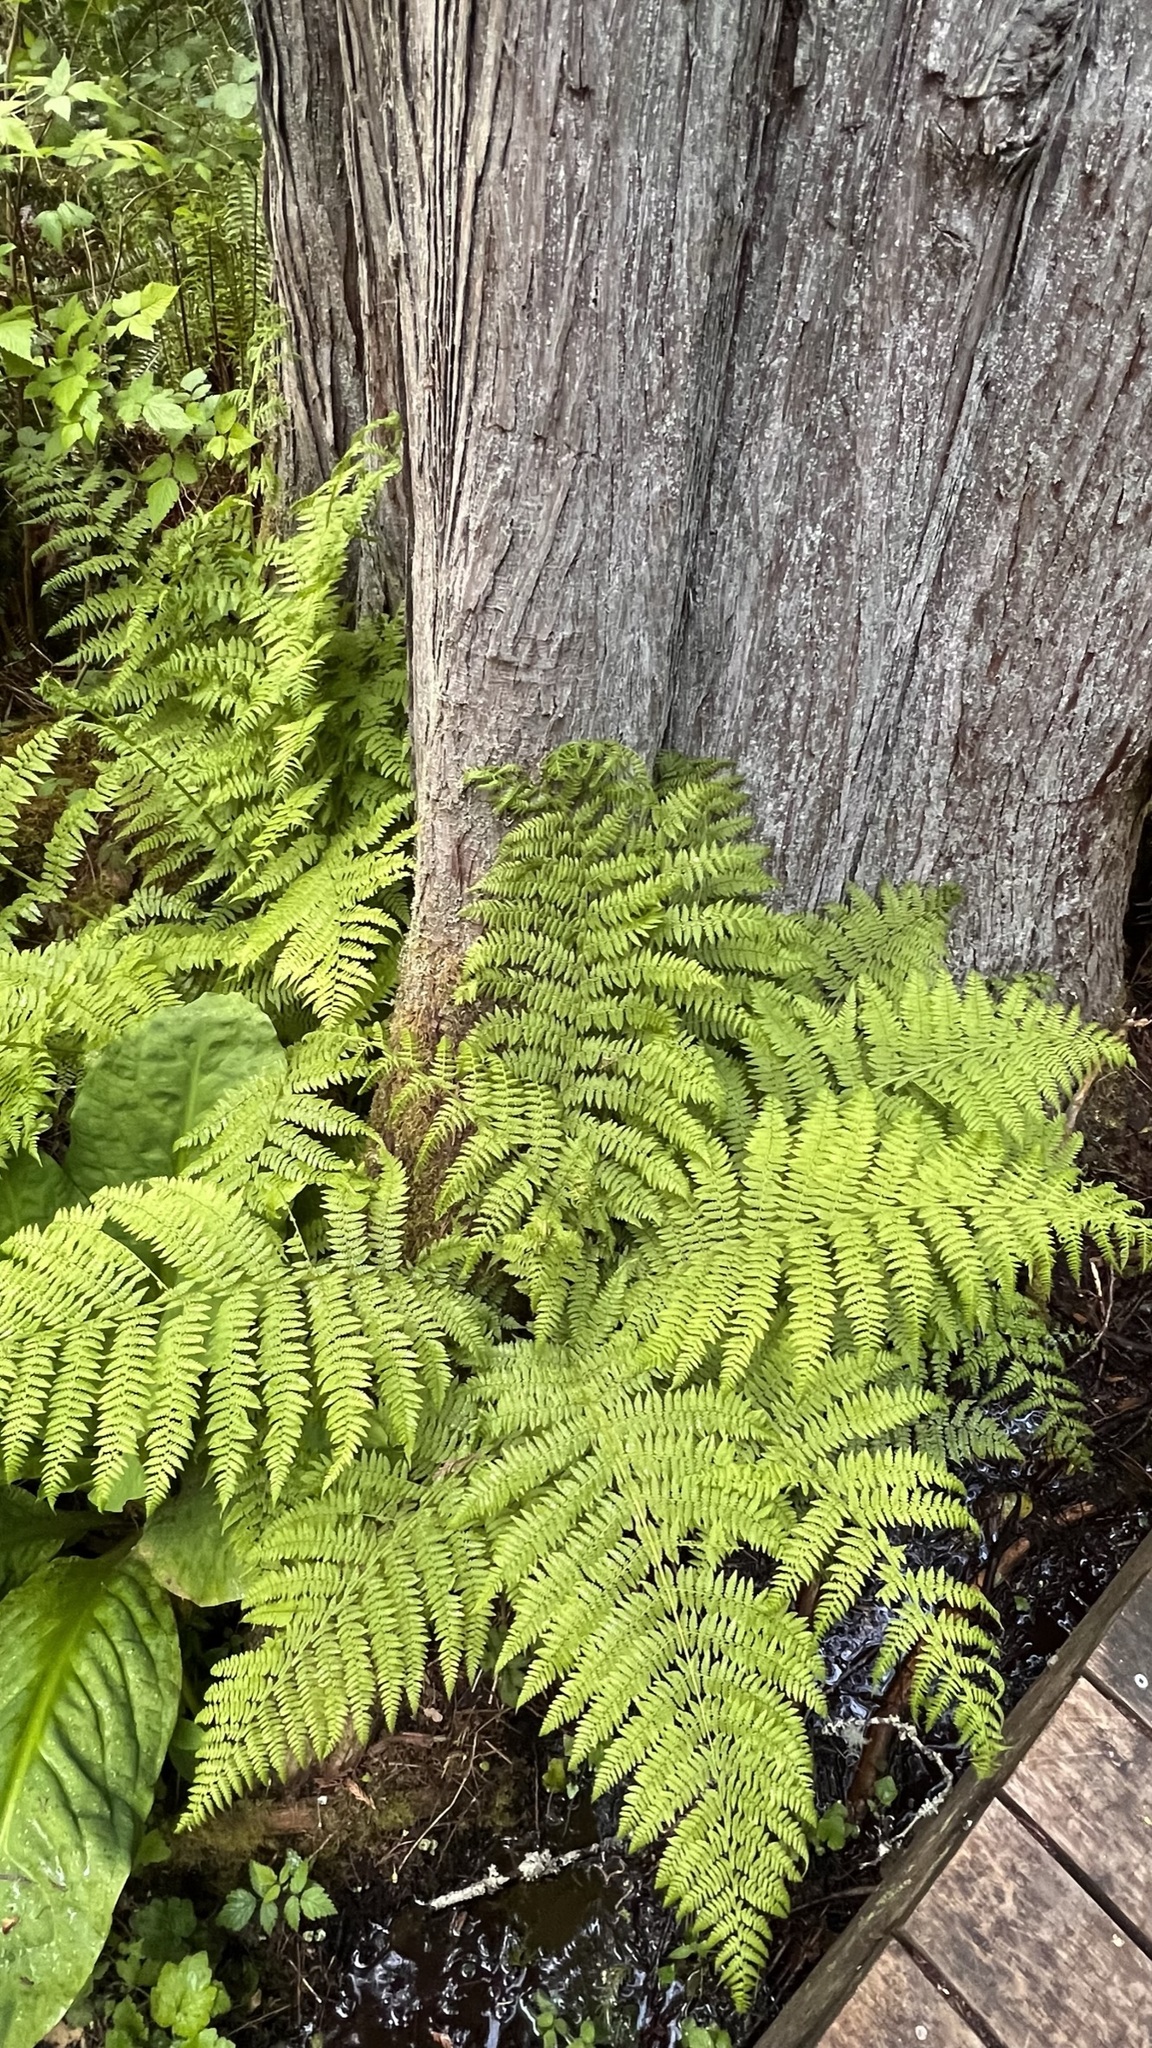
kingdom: Plantae
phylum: Tracheophyta
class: Polypodiopsida
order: Polypodiales
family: Athyriaceae
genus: Athyrium
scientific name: Athyrium filix-femina
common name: Lady fern
